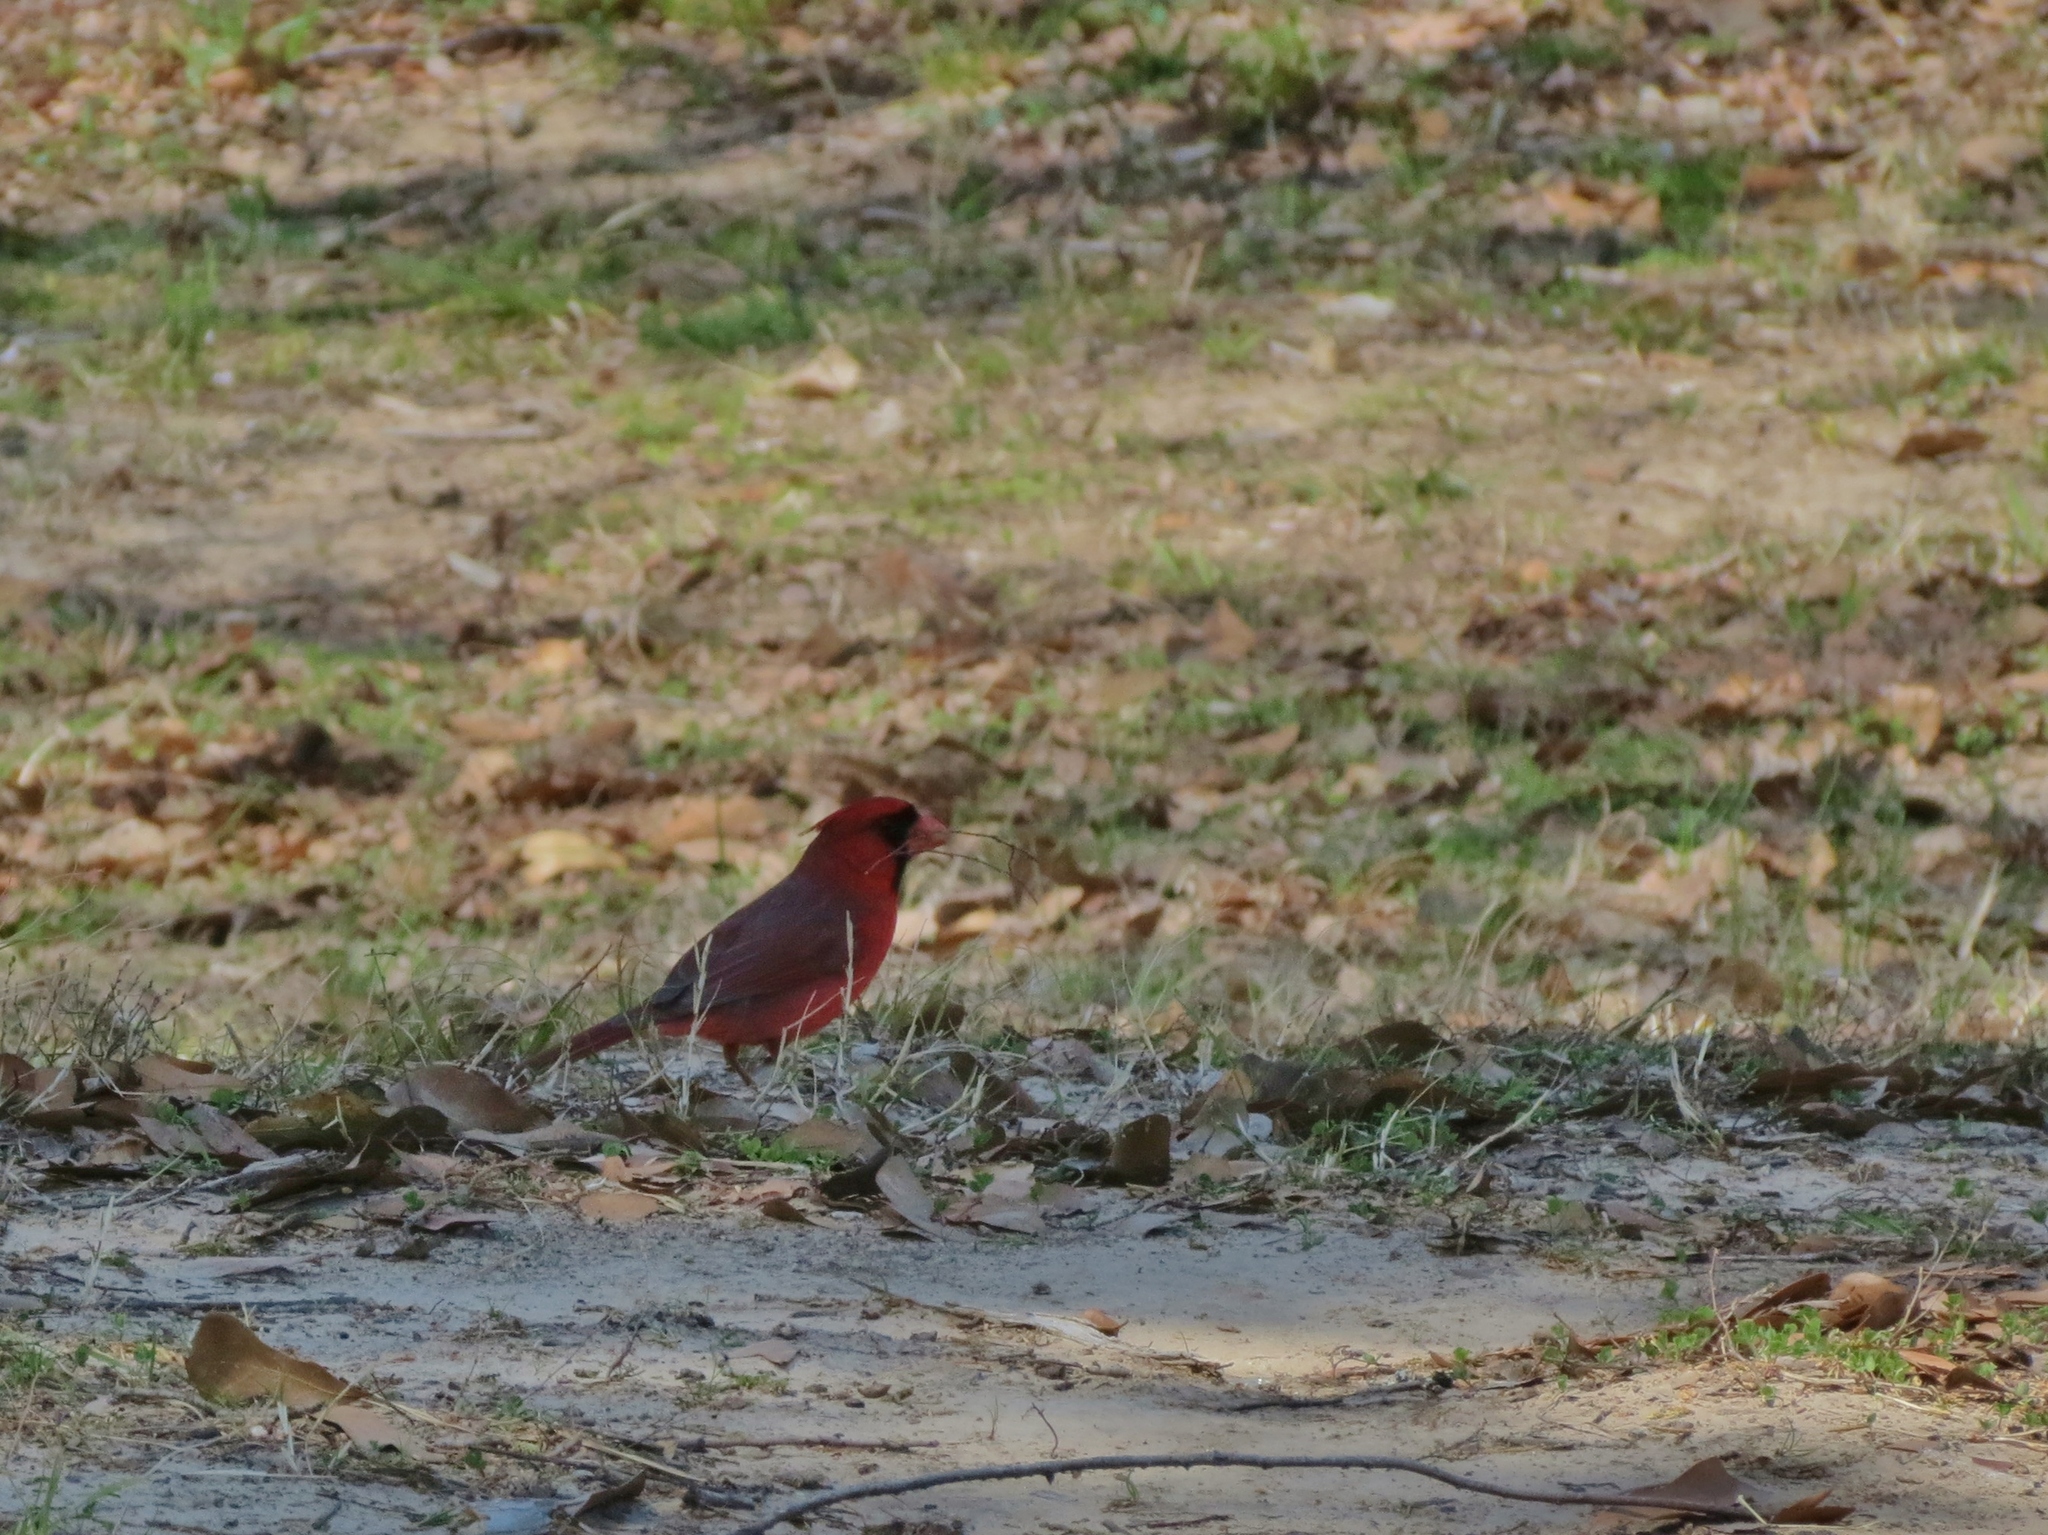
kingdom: Animalia
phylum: Chordata
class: Aves
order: Passeriformes
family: Cardinalidae
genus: Cardinalis
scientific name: Cardinalis cardinalis
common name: Northern cardinal
